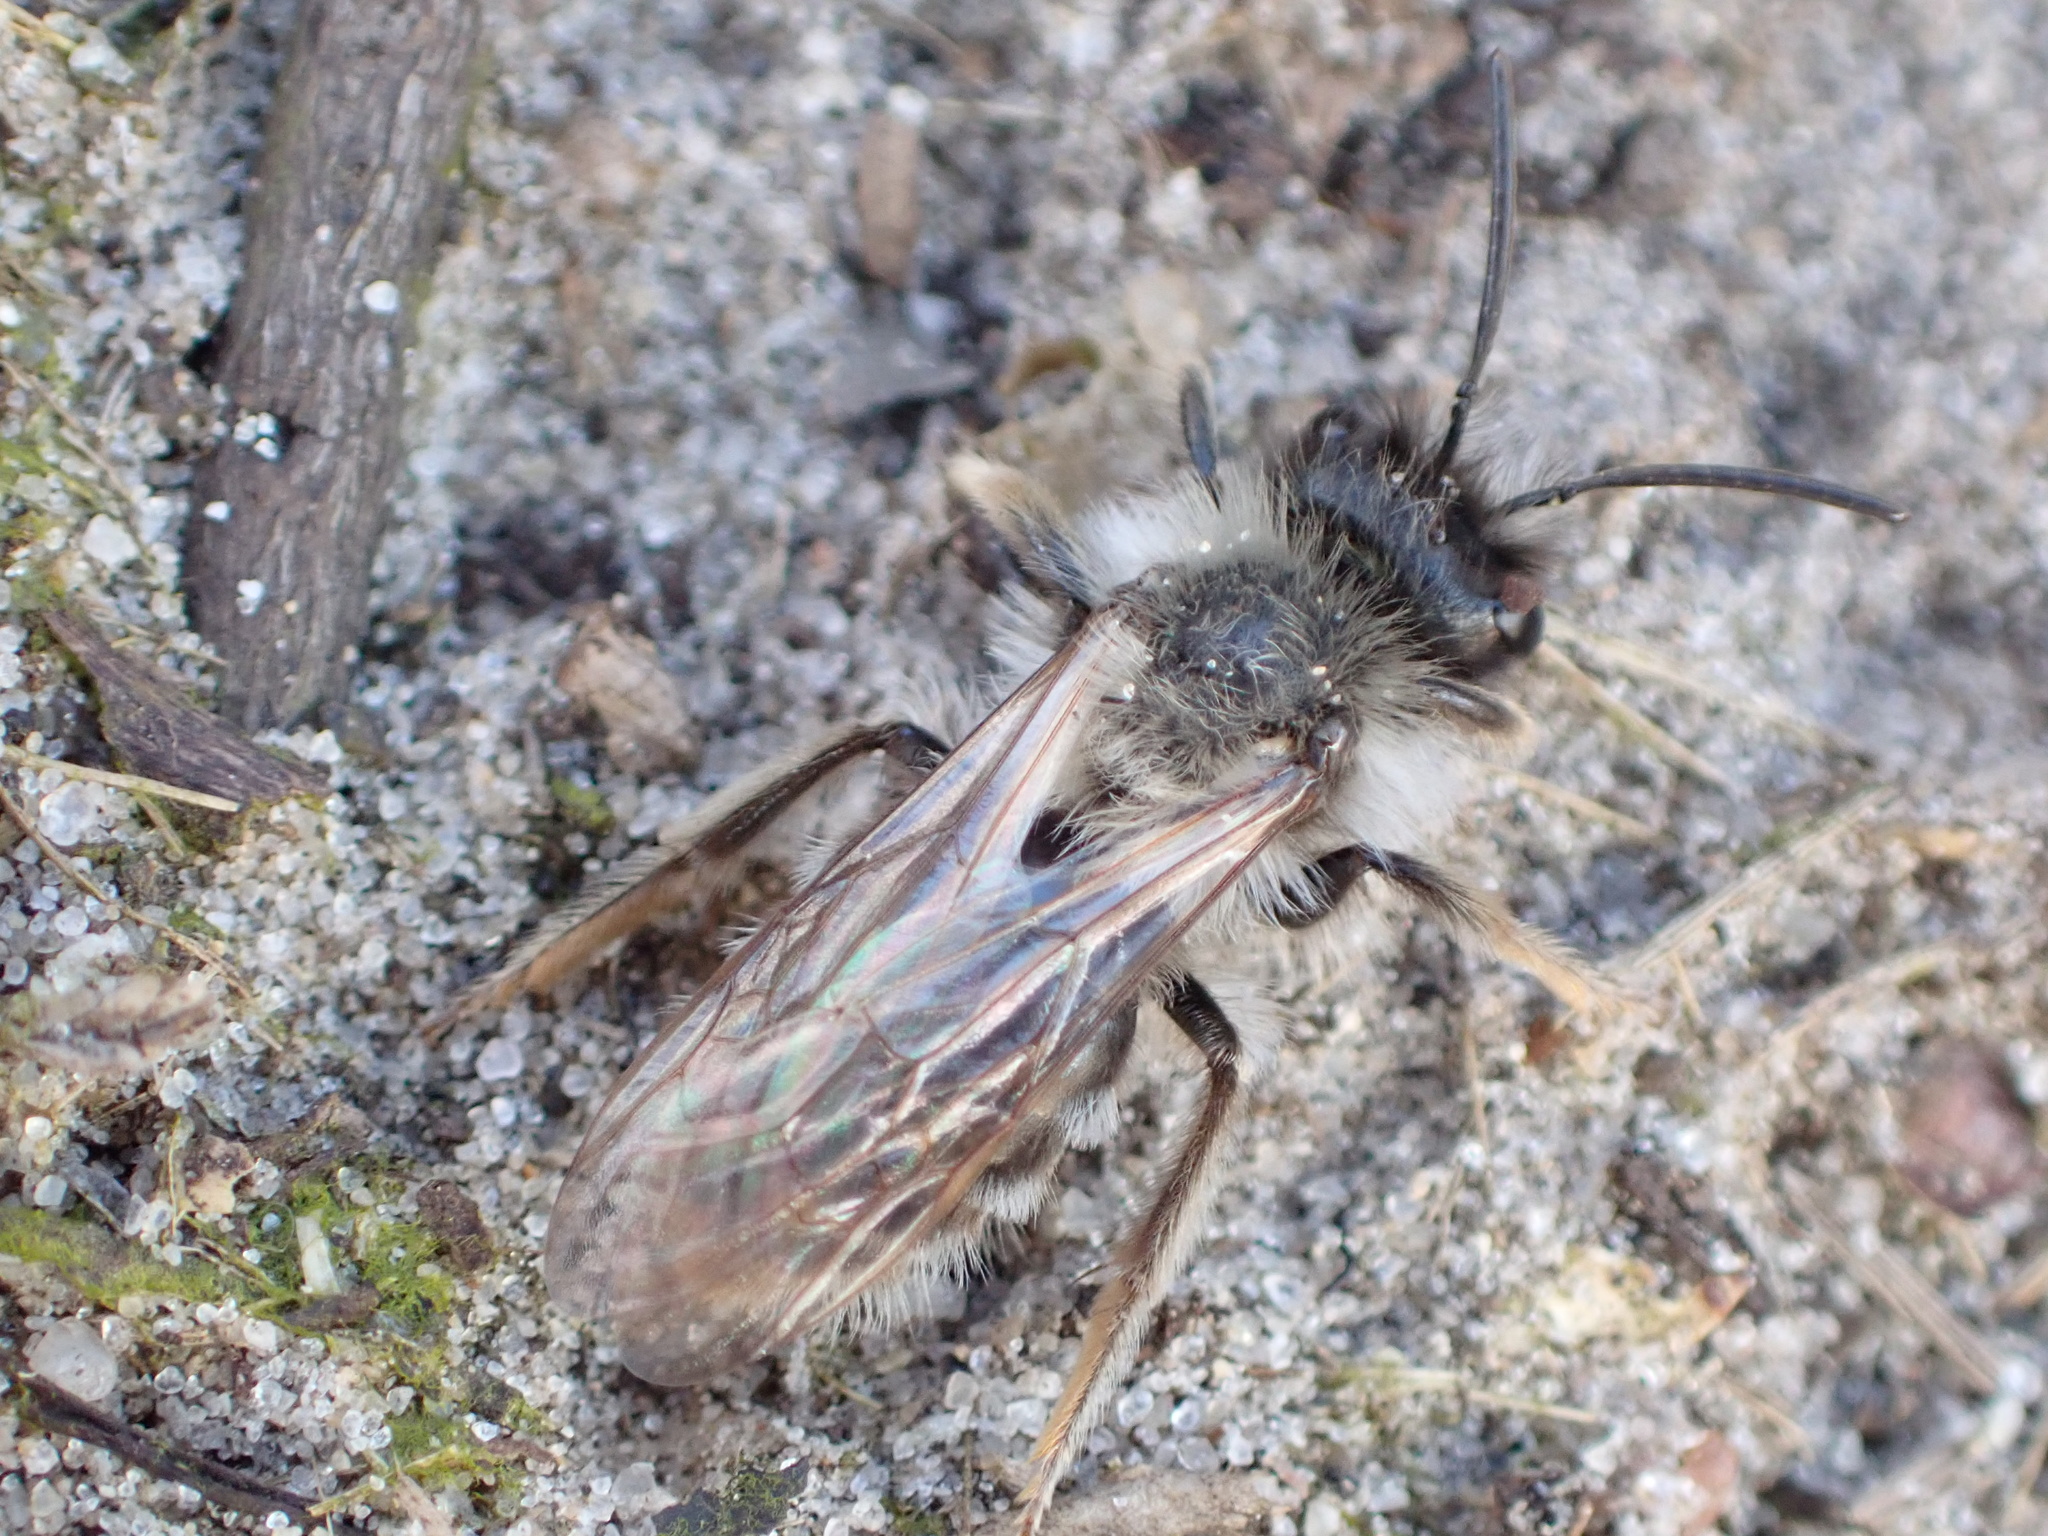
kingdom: Animalia
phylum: Arthropoda
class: Insecta
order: Hymenoptera
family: Andrenidae
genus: Andrena
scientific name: Andrena vaga
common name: Grey-backed mining bee
